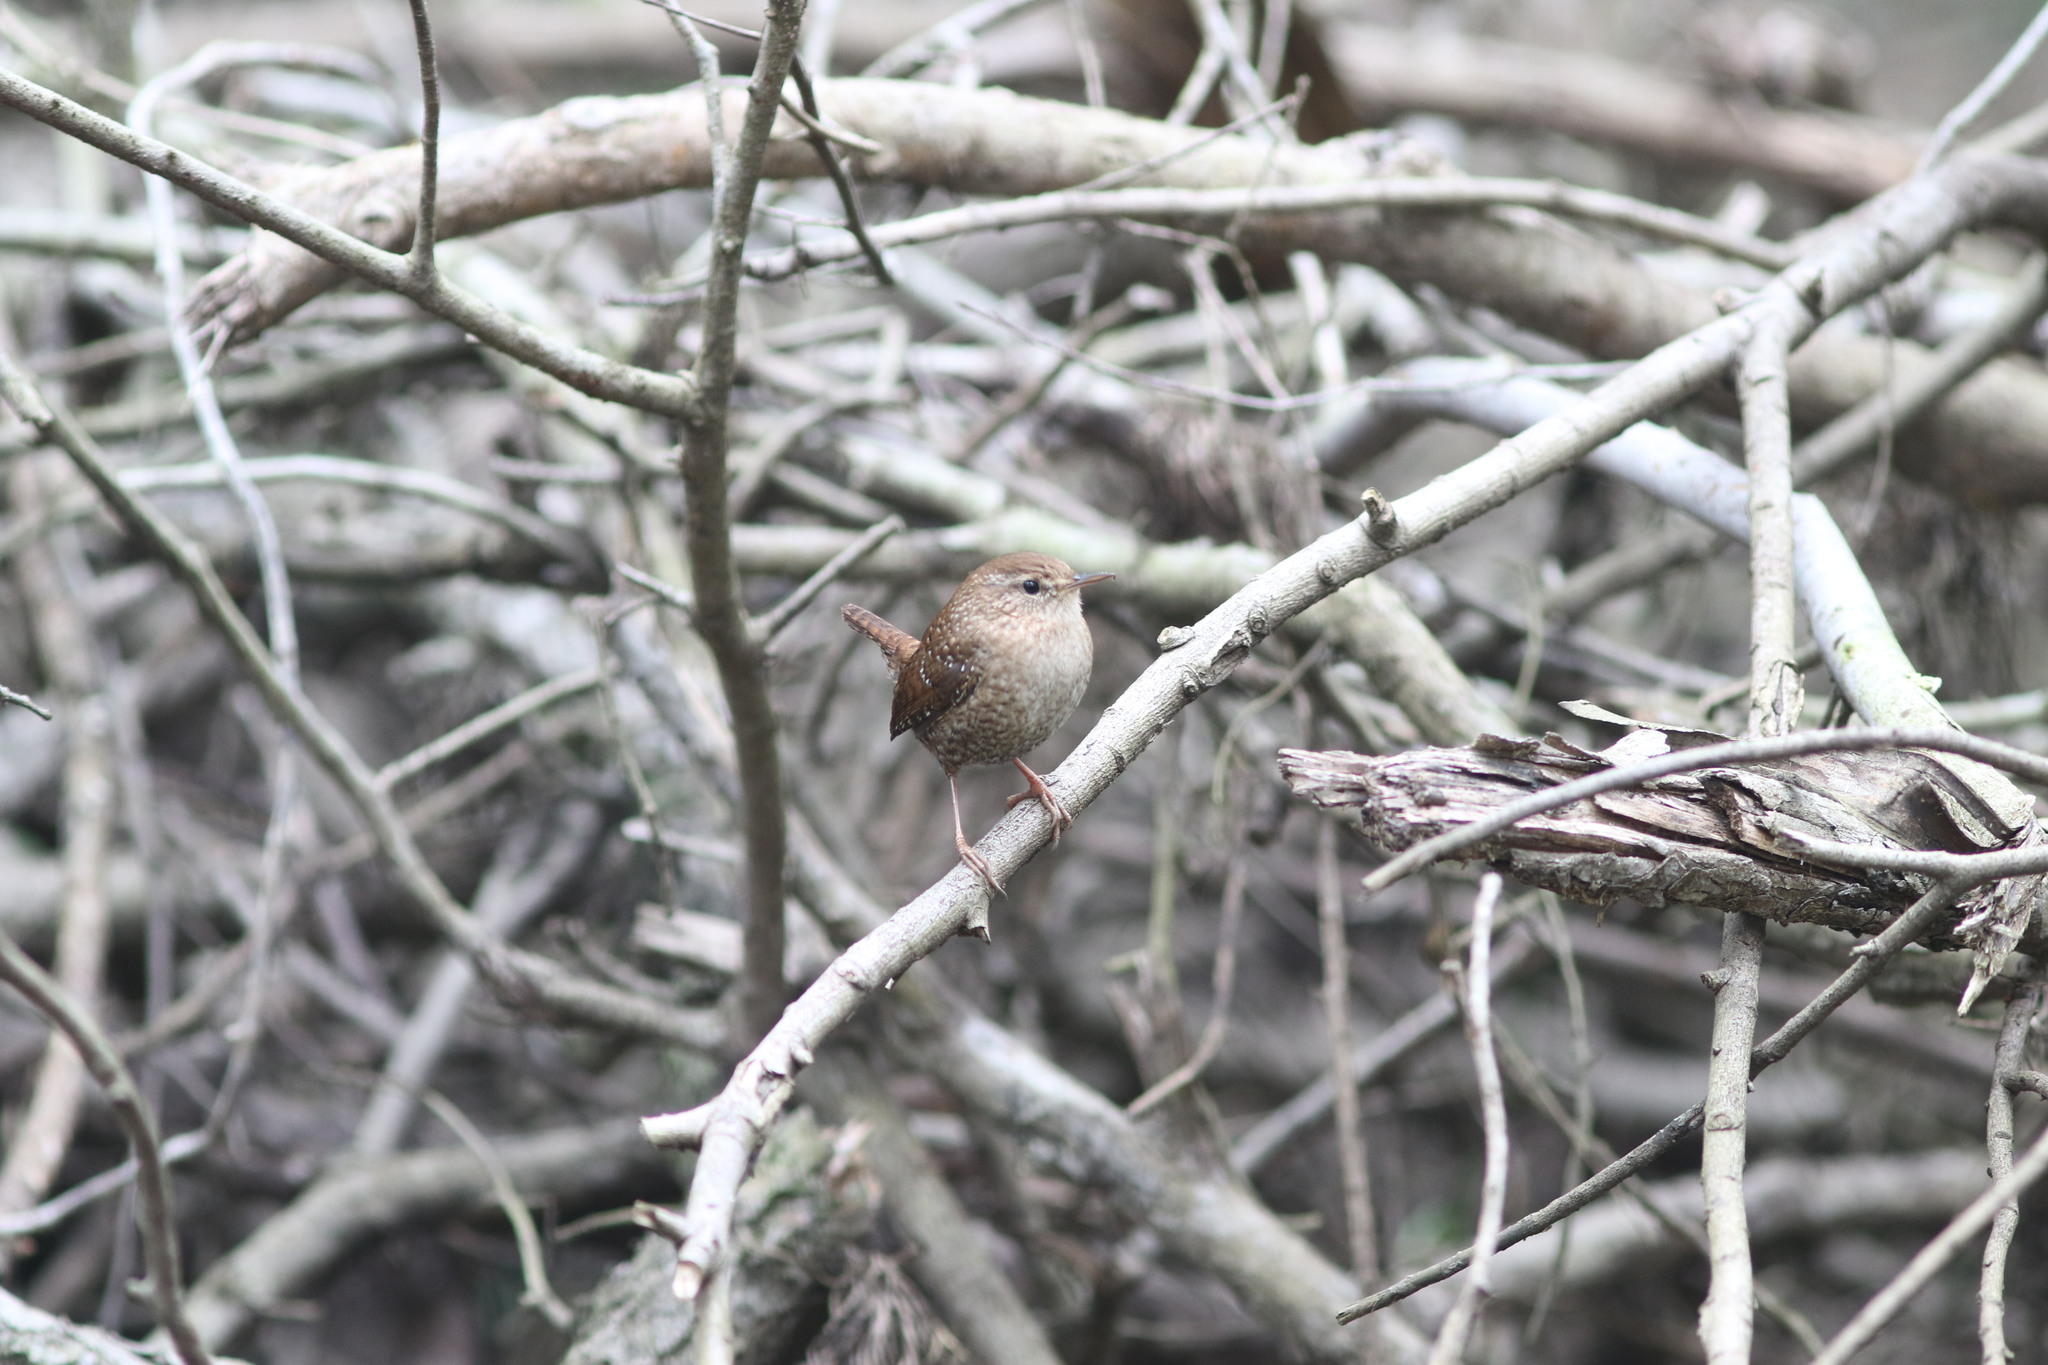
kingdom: Animalia
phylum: Chordata
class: Aves
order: Passeriformes
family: Troglodytidae
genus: Troglodytes
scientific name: Troglodytes hiemalis
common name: Winter wren
